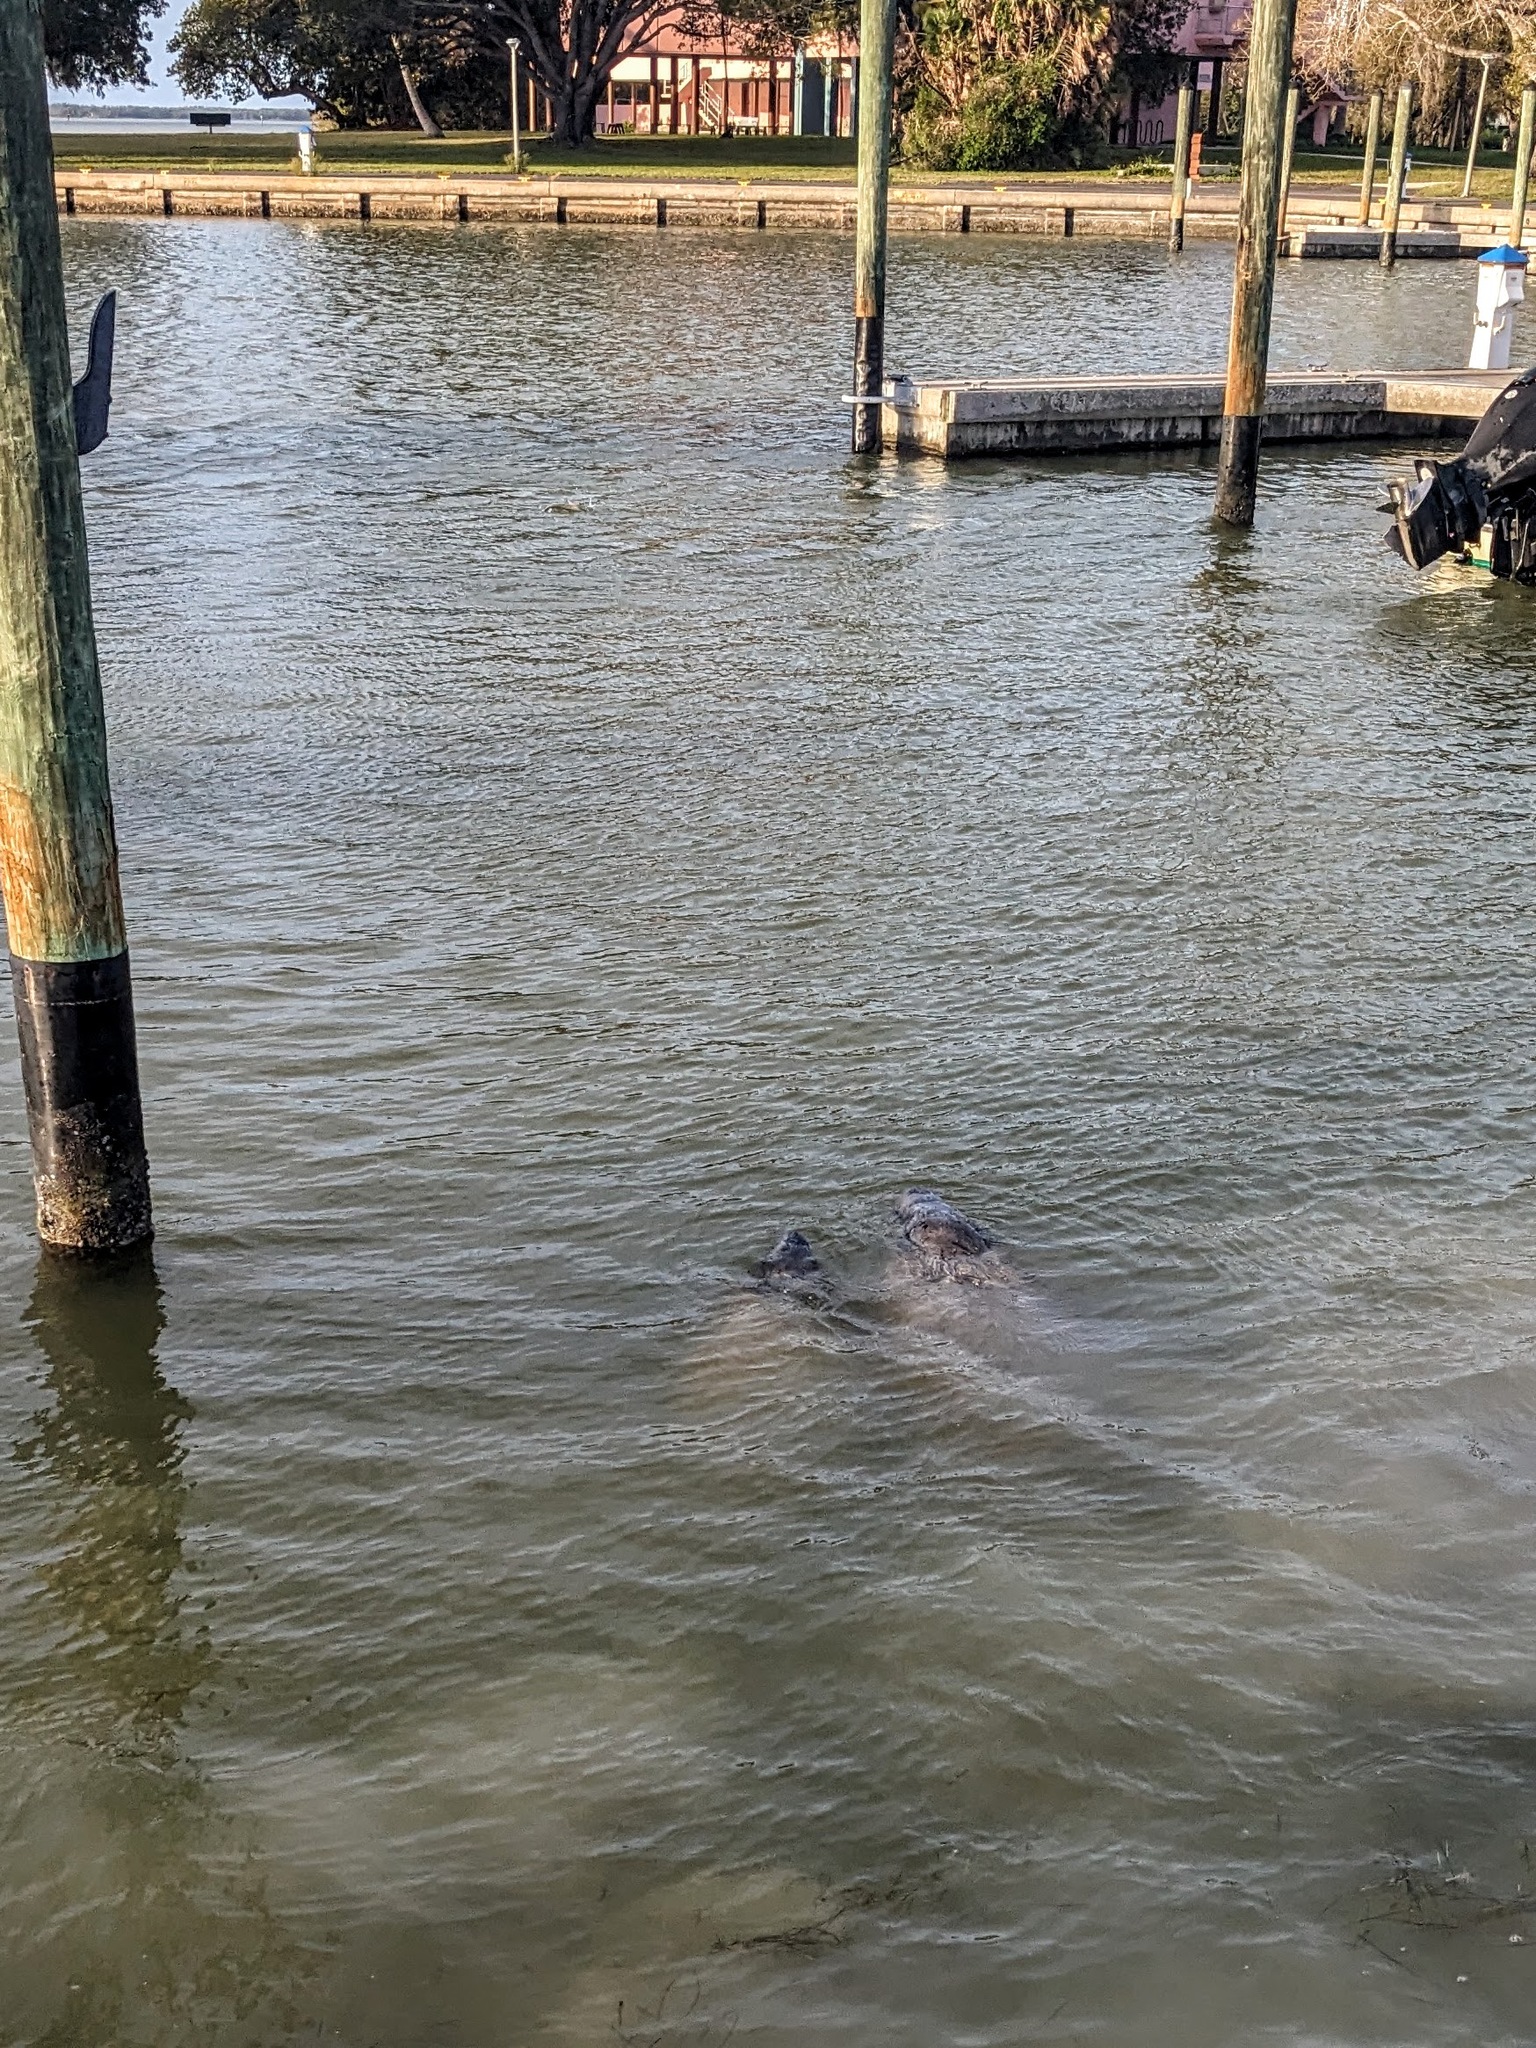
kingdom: Animalia
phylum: Chordata
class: Mammalia
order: Sirenia
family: Trichechidae
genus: Trichechus
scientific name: Trichechus manatus
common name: West indian manatee
